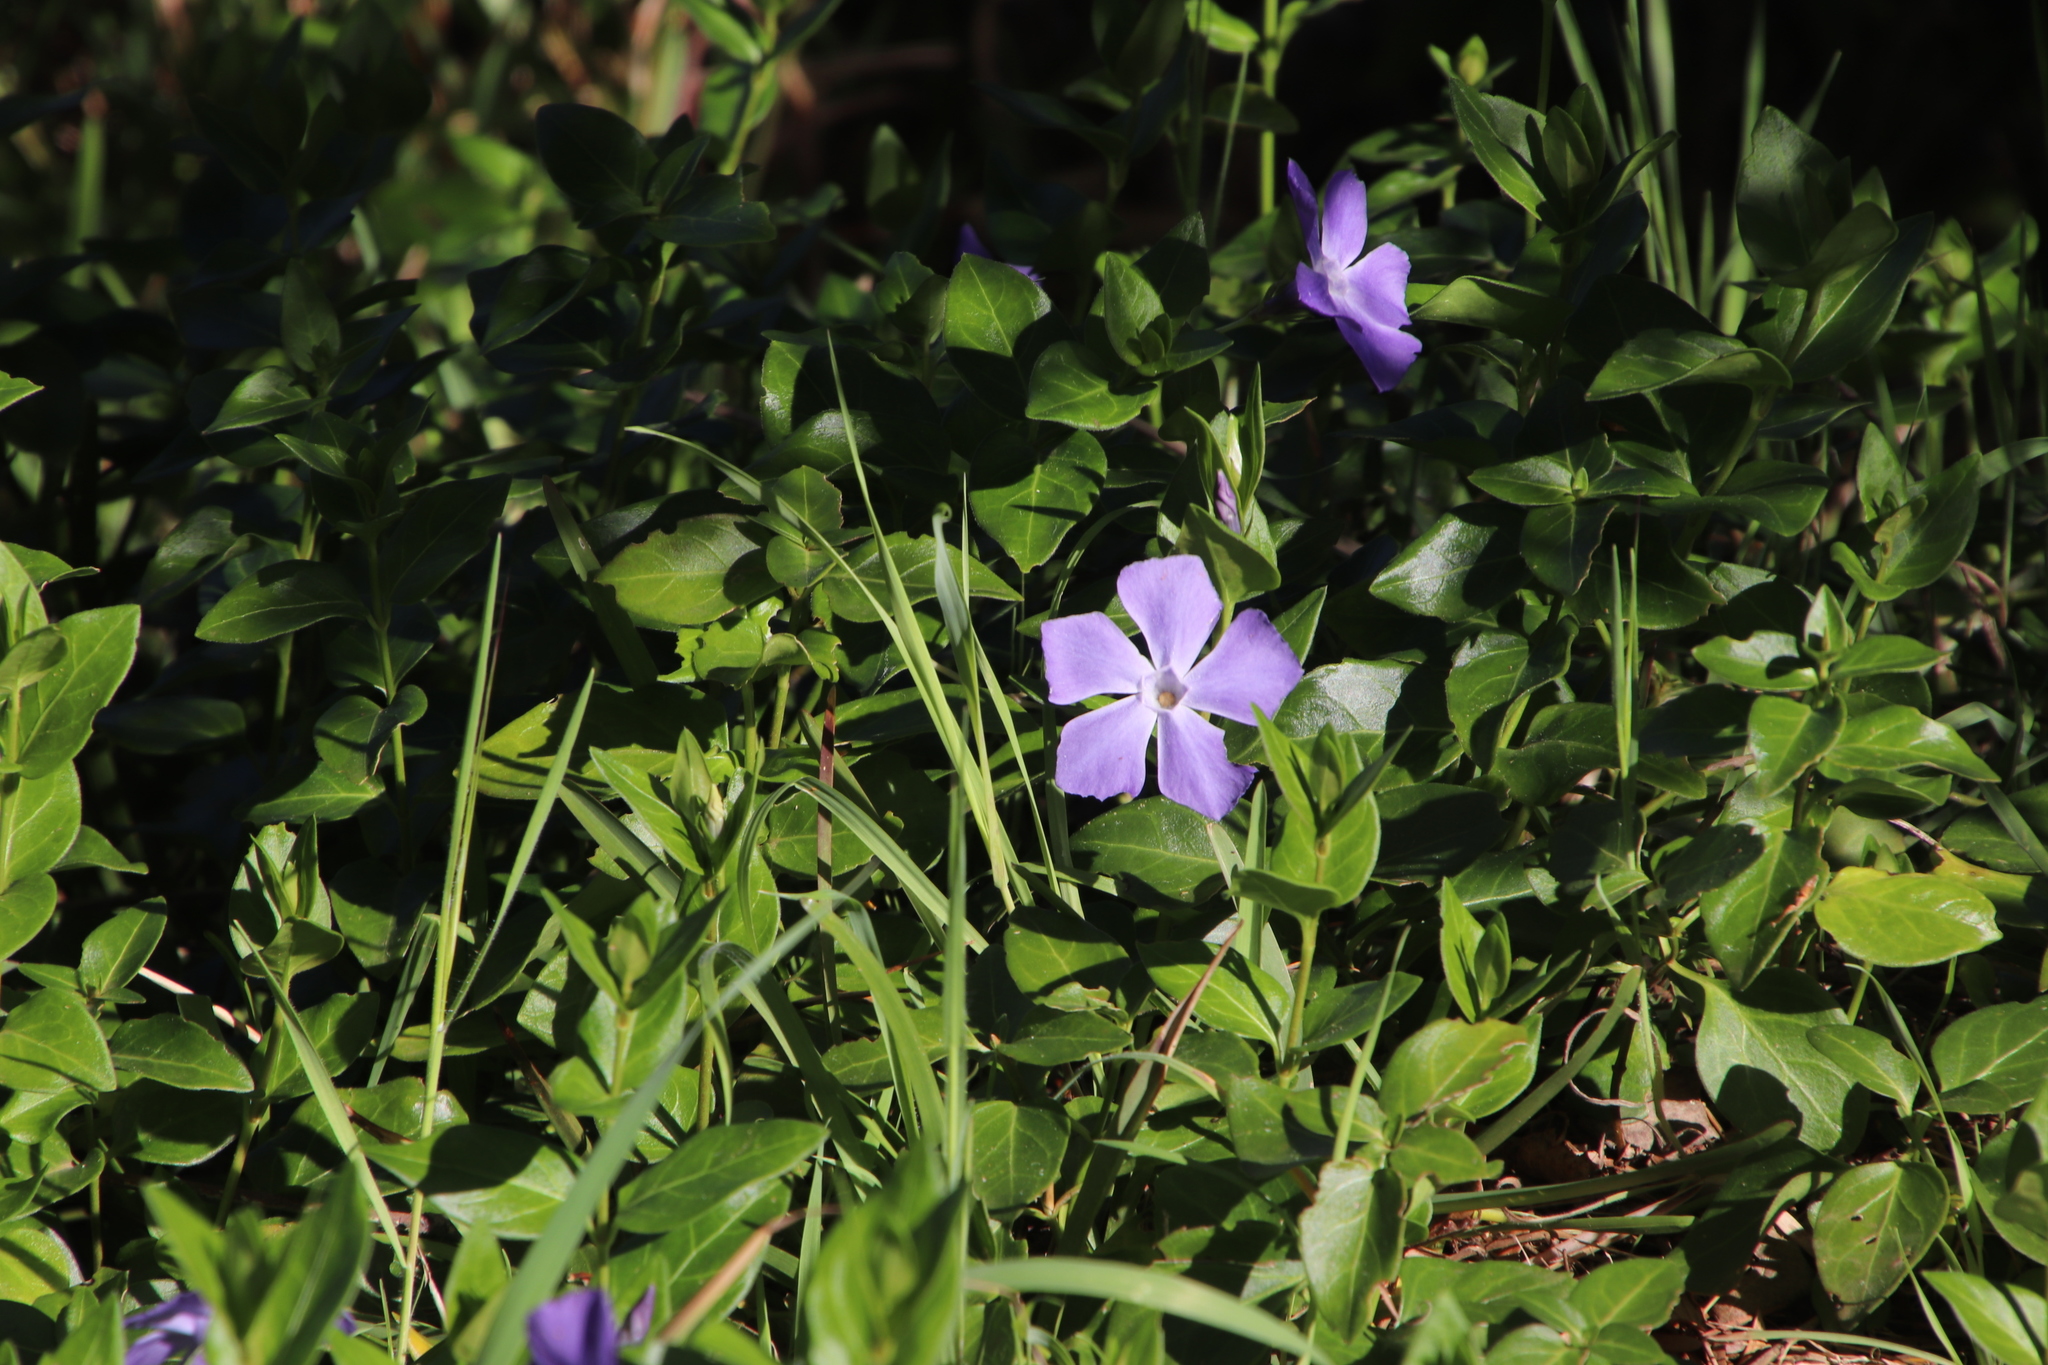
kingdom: Plantae
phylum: Tracheophyta
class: Magnoliopsida
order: Gentianales
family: Apocynaceae
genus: Vinca
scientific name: Vinca major
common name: Greater periwinkle
